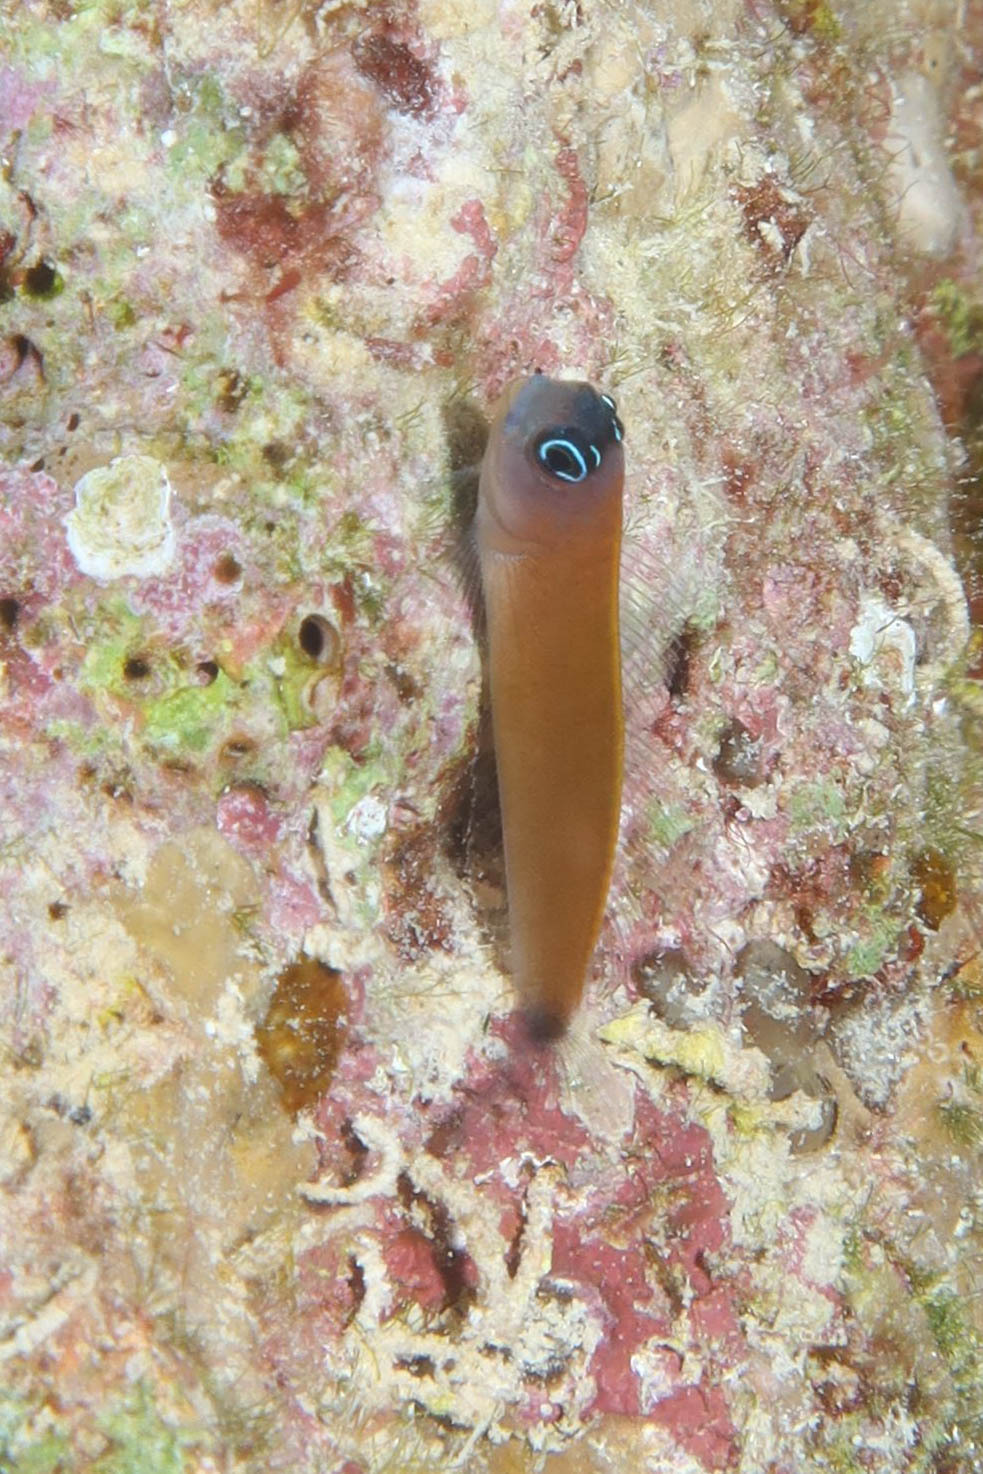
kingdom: Animalia
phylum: Chordata
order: Perciformes
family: Blenniidae
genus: Ecsenius
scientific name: Ecsenius aroni
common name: Aron's blenny
